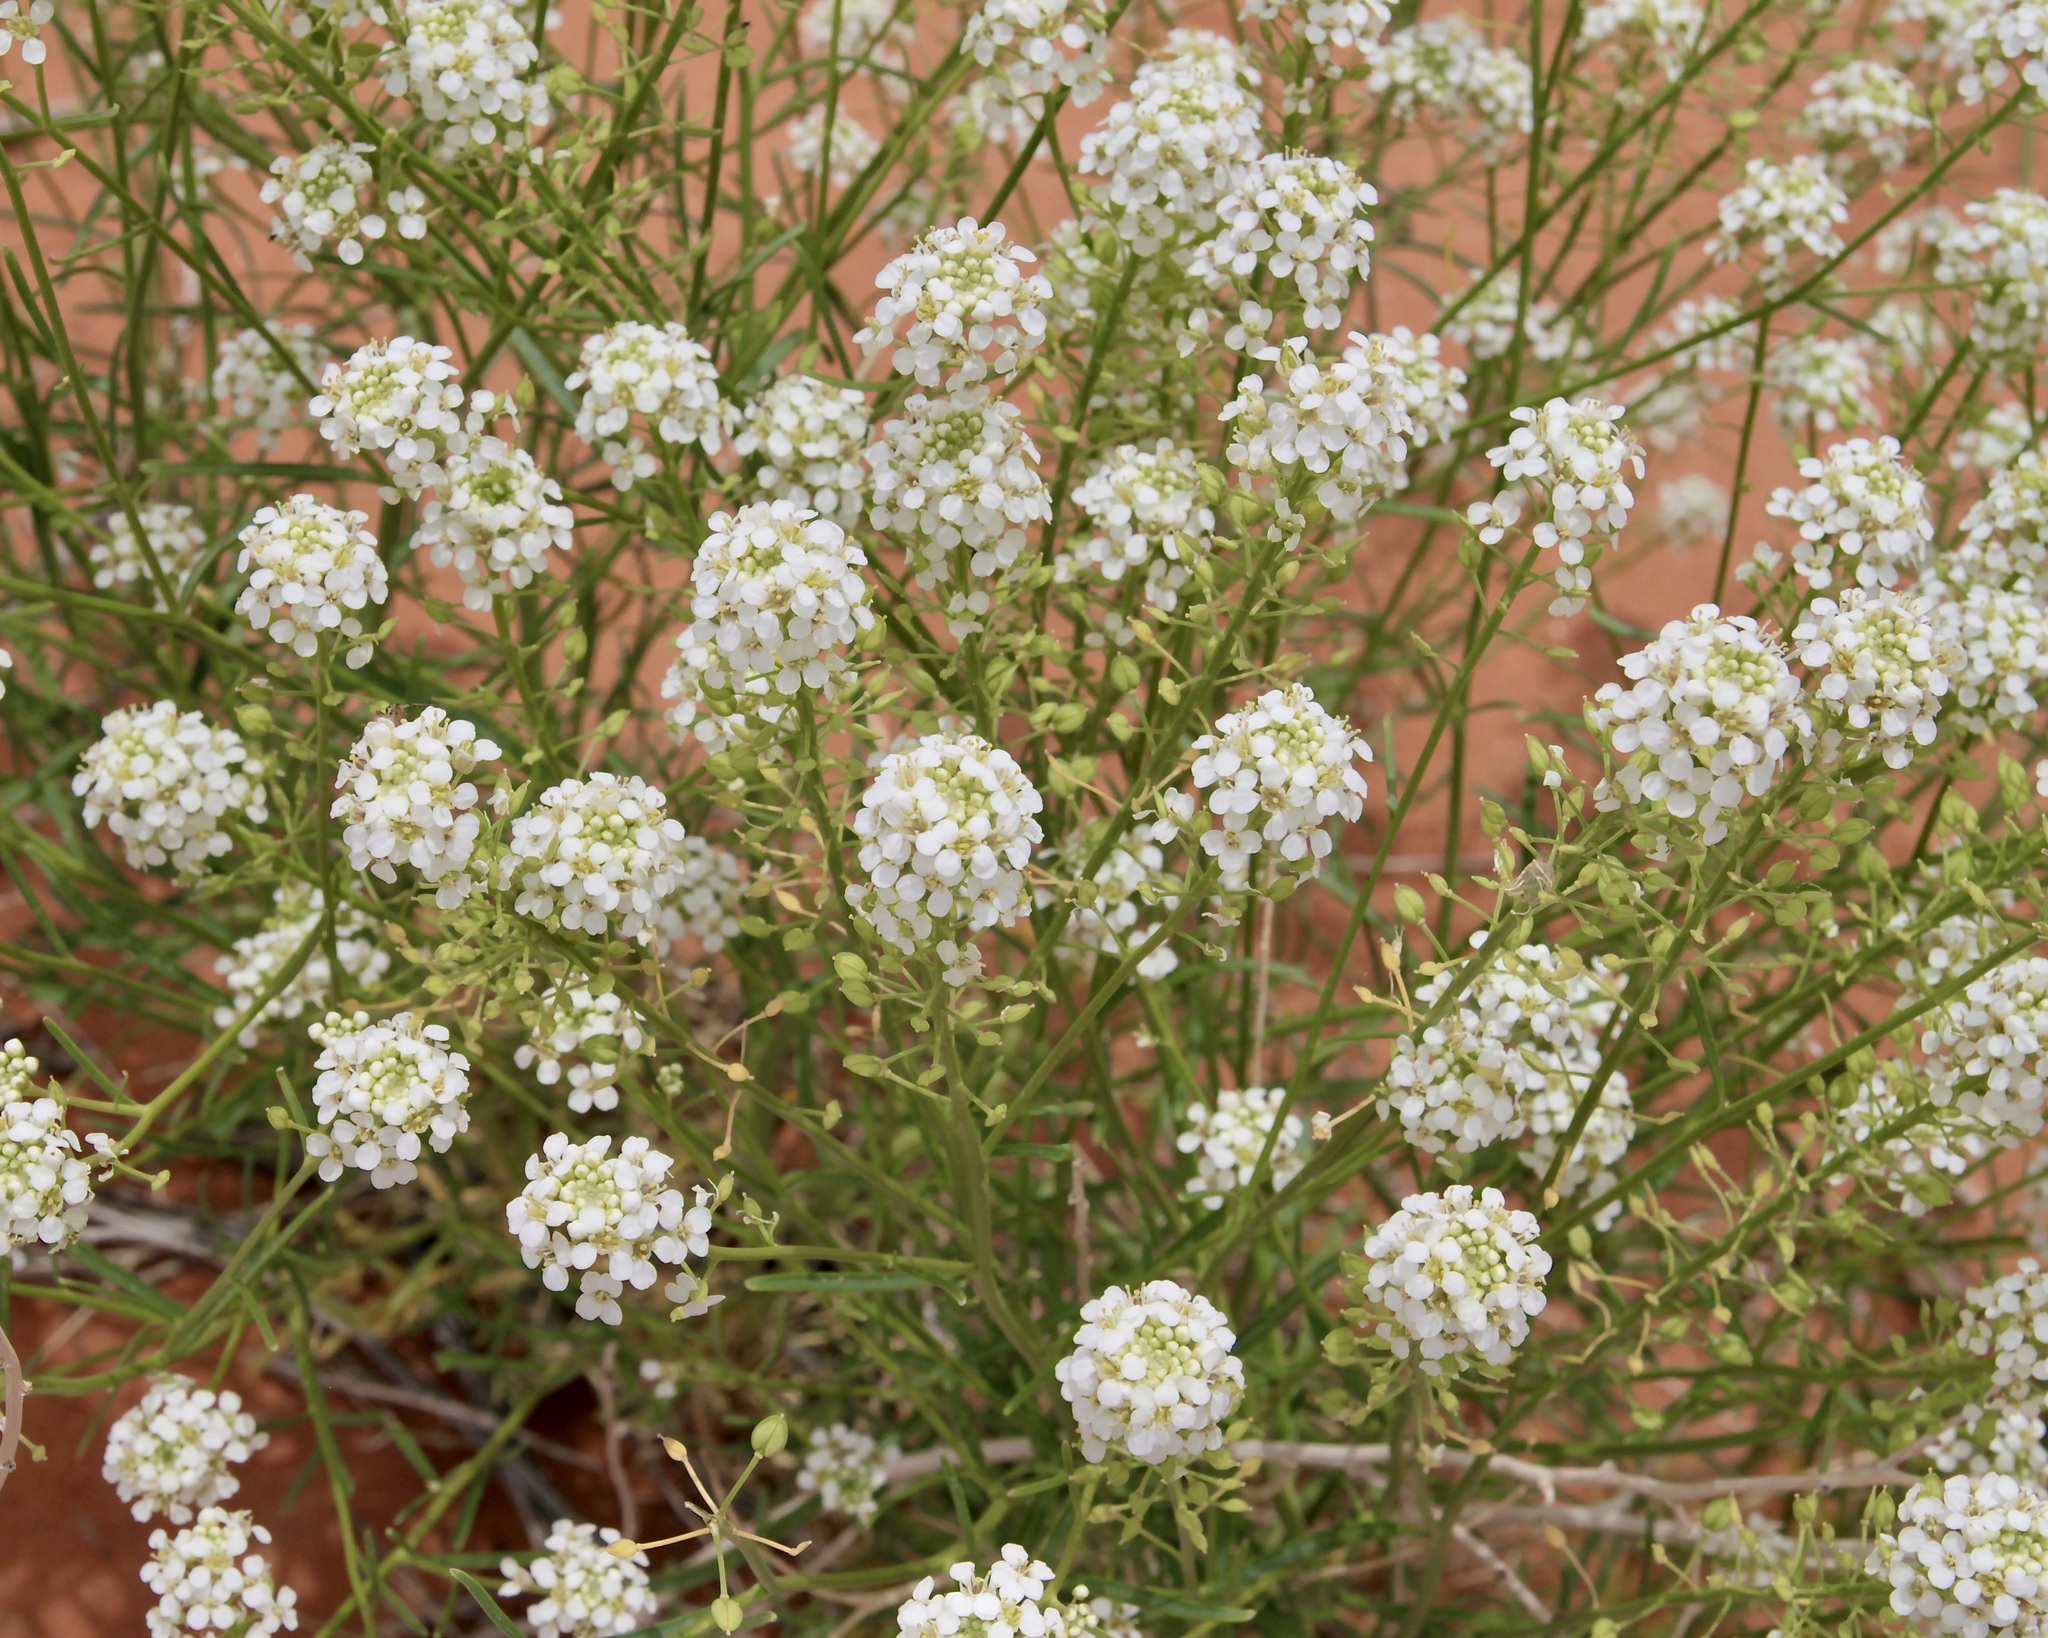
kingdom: Plantae
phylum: Tracheophyta
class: Magnoliopsida
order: Brassicales
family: Brassicaceae
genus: Lepidium
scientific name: Lepidium fremontii
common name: Fremont's pepperwort
